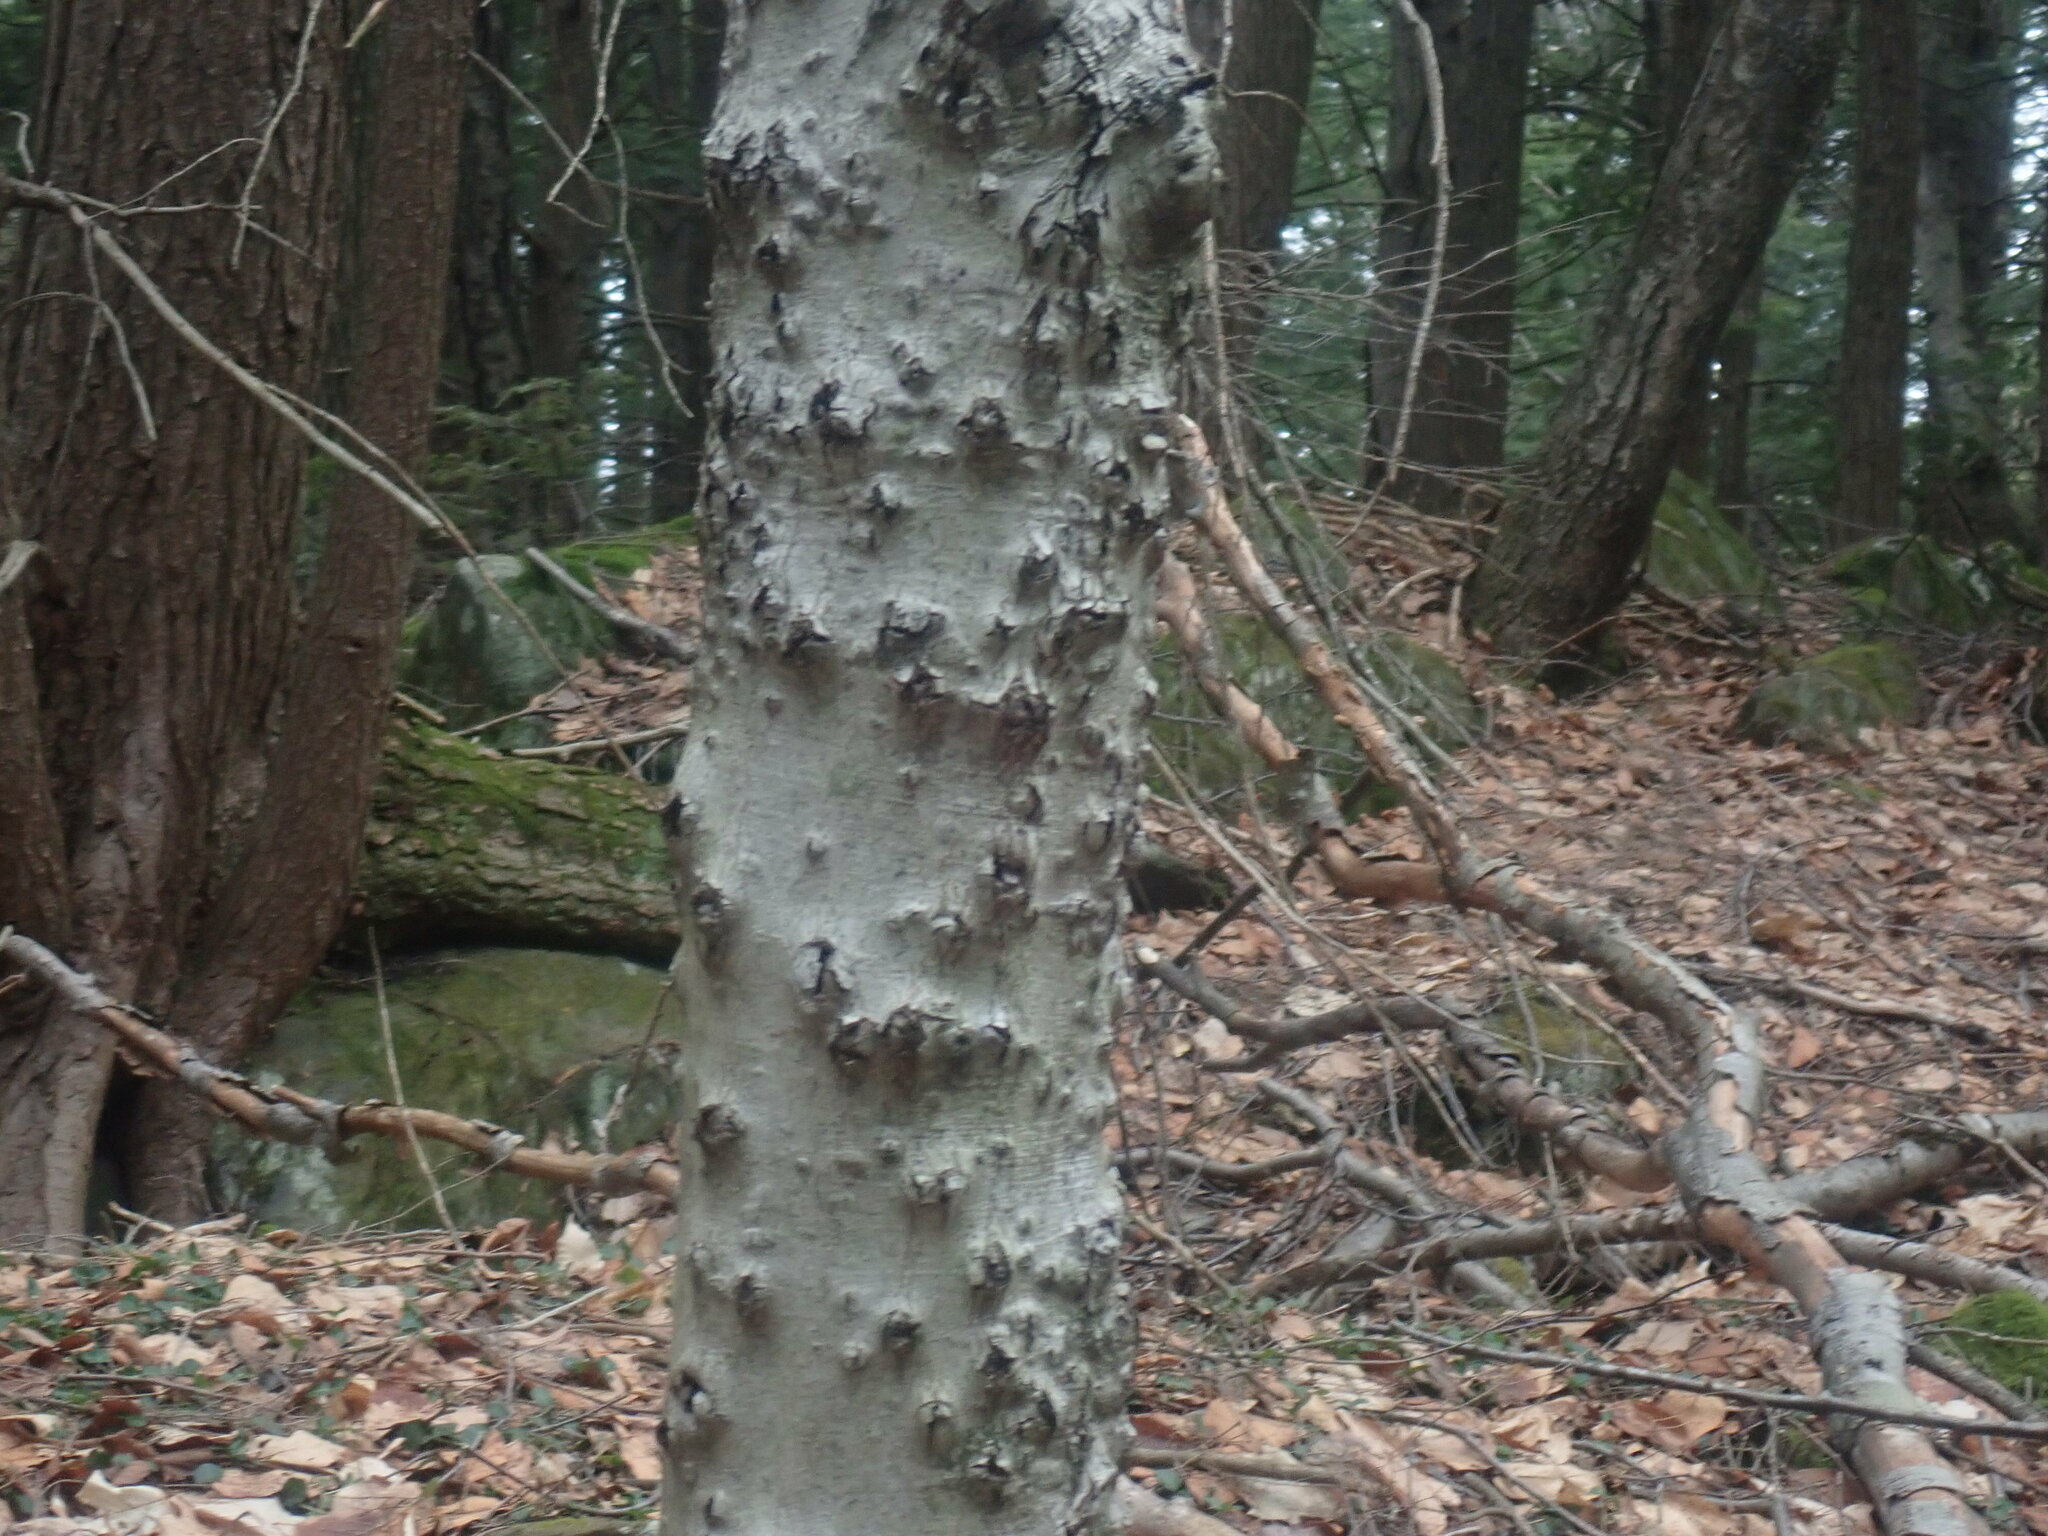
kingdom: Fungi
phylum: Ascomycota
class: Sordariomycetes
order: Hypocreales
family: Nectriaceae
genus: Neonectria
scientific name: Neonectria faginata
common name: Beech bark canker
